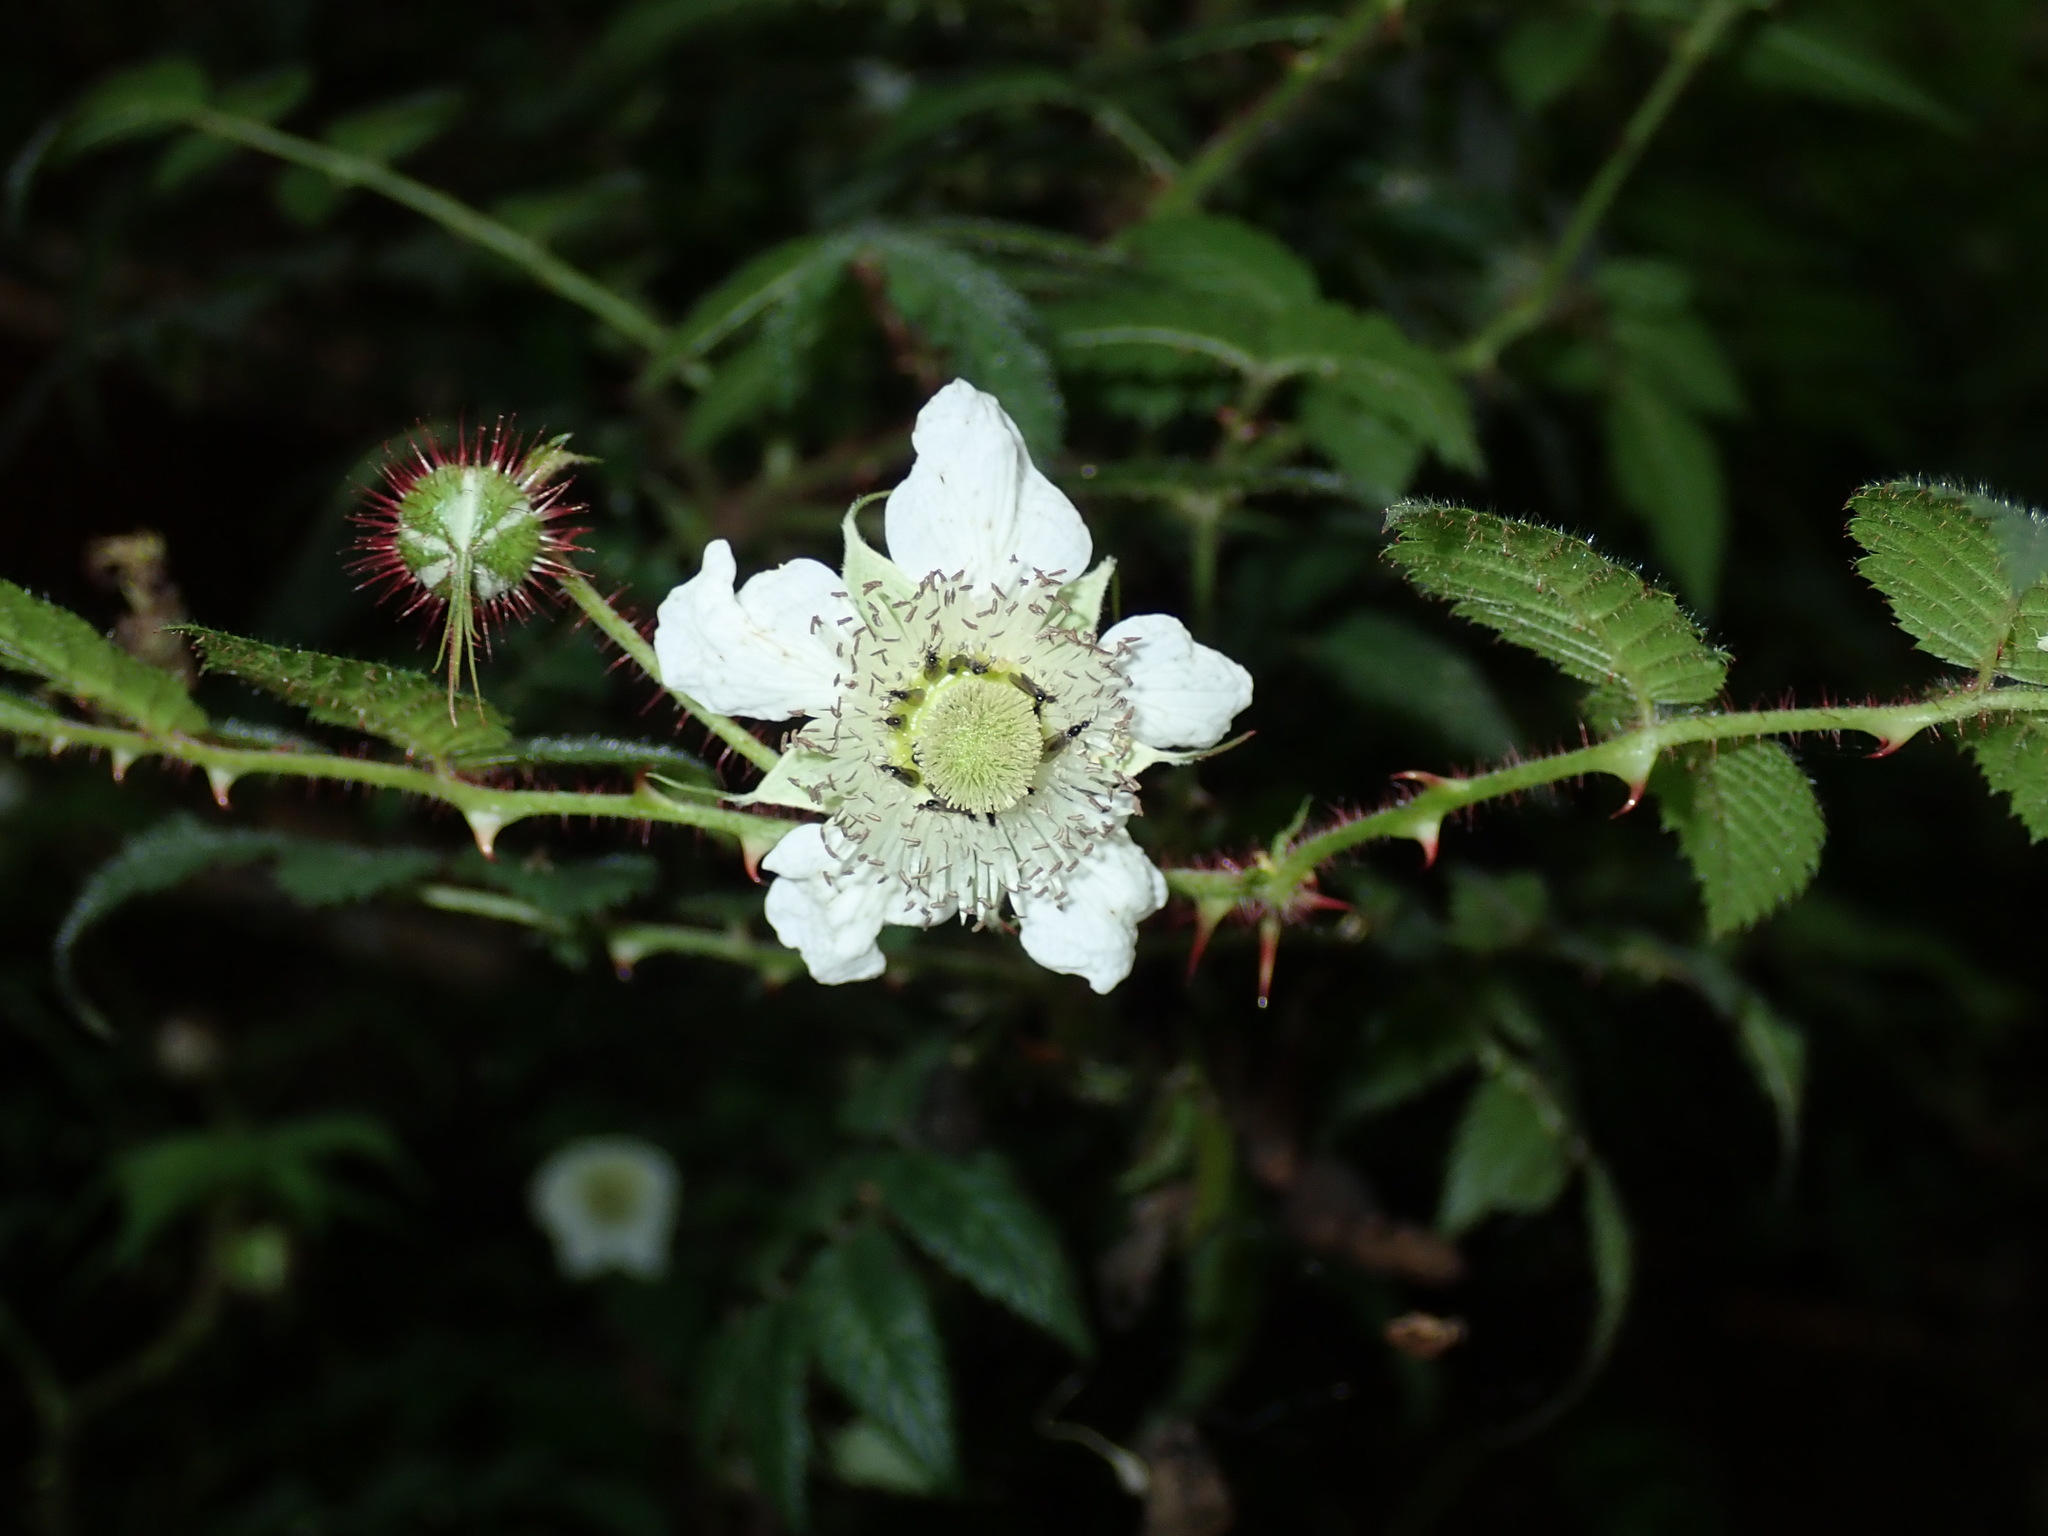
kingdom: Plantae
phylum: Tracheophyta
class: Magnoliopsida
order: Rosales
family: Rosaceae
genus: Rubus
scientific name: Rubus croceacanthus
